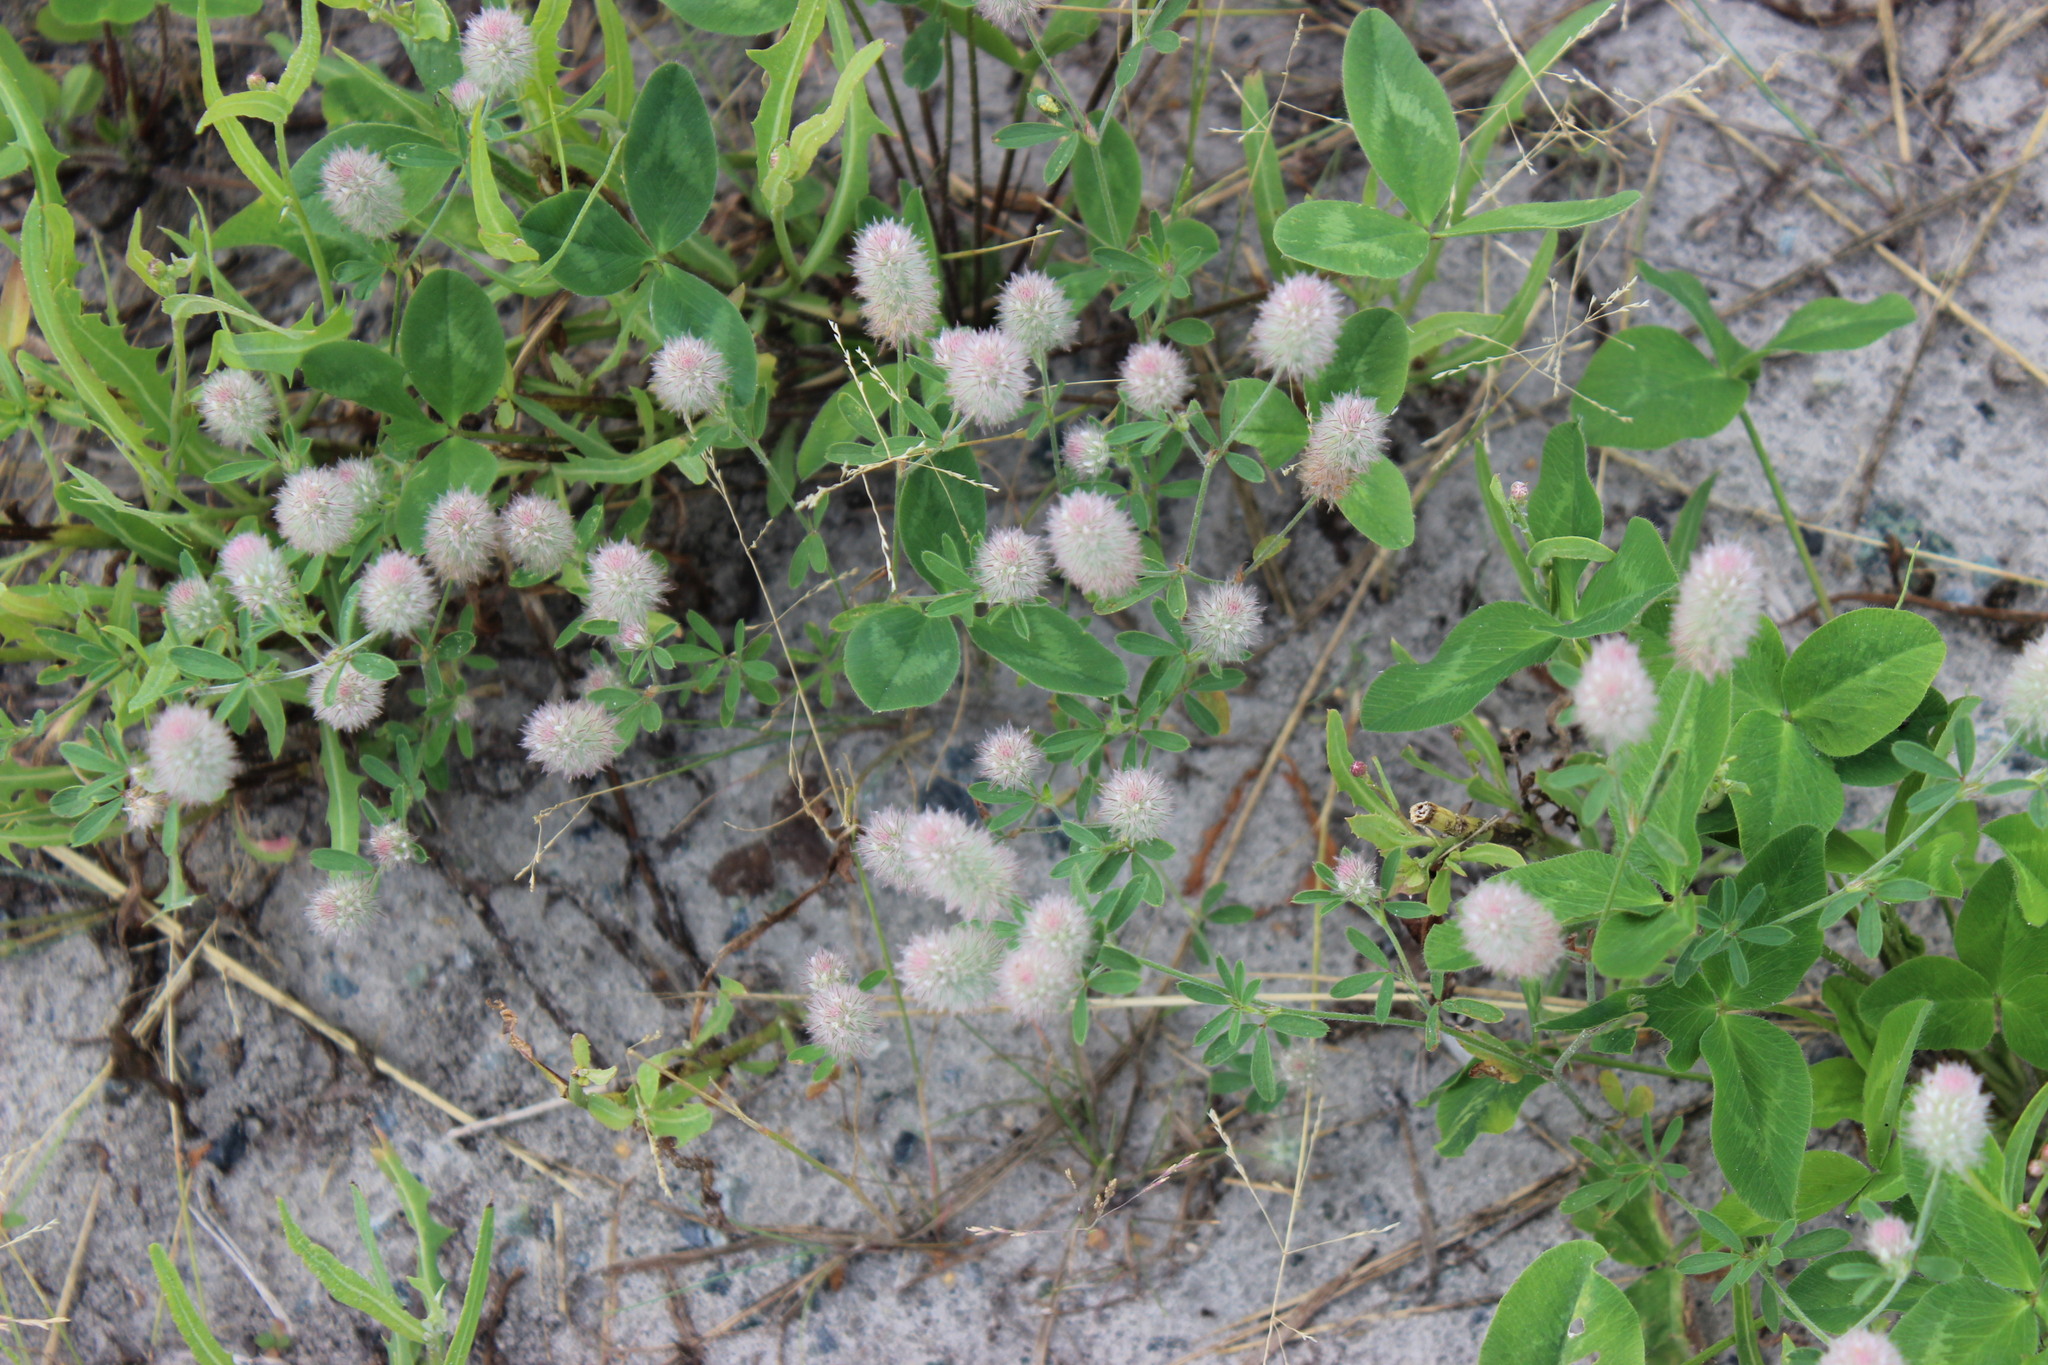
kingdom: Plantae
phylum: Tracheophyta
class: Magnoliopsida
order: Fabales
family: Fabaceae
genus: Trifolium
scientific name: Trifolium arvense
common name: Hare's-foot clover
